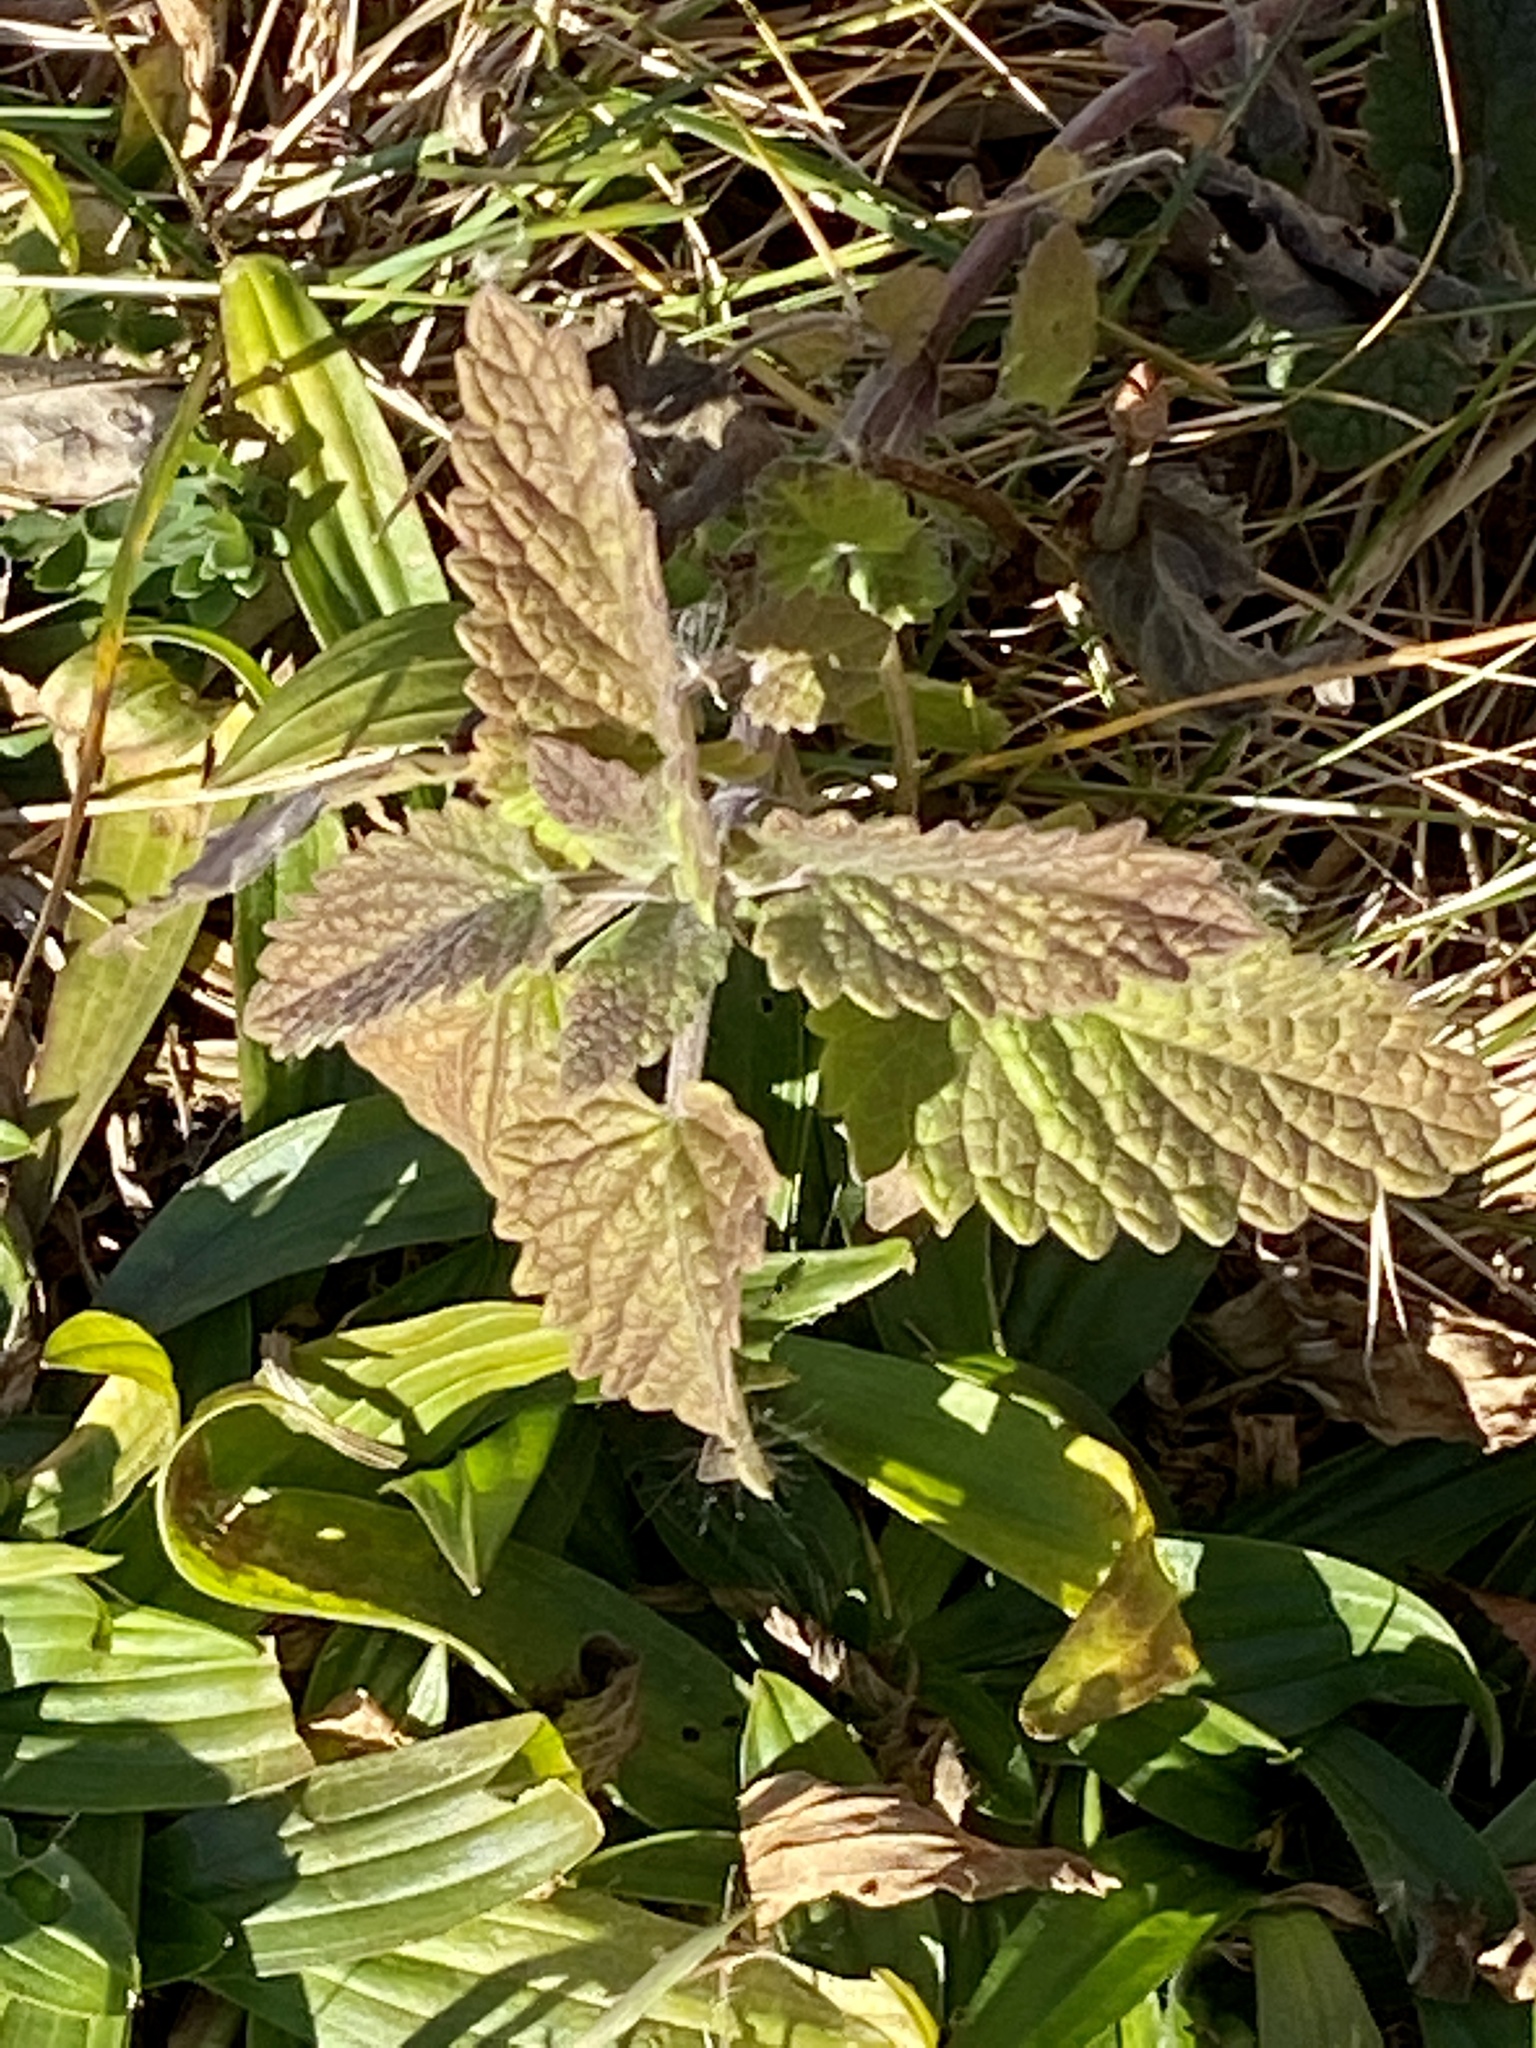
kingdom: Plantae
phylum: Tracheophyta
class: Magnoliopsida
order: Lamiales
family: Lamiaceae
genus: Nepeta
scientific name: Nepeta cataria
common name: Catnip
